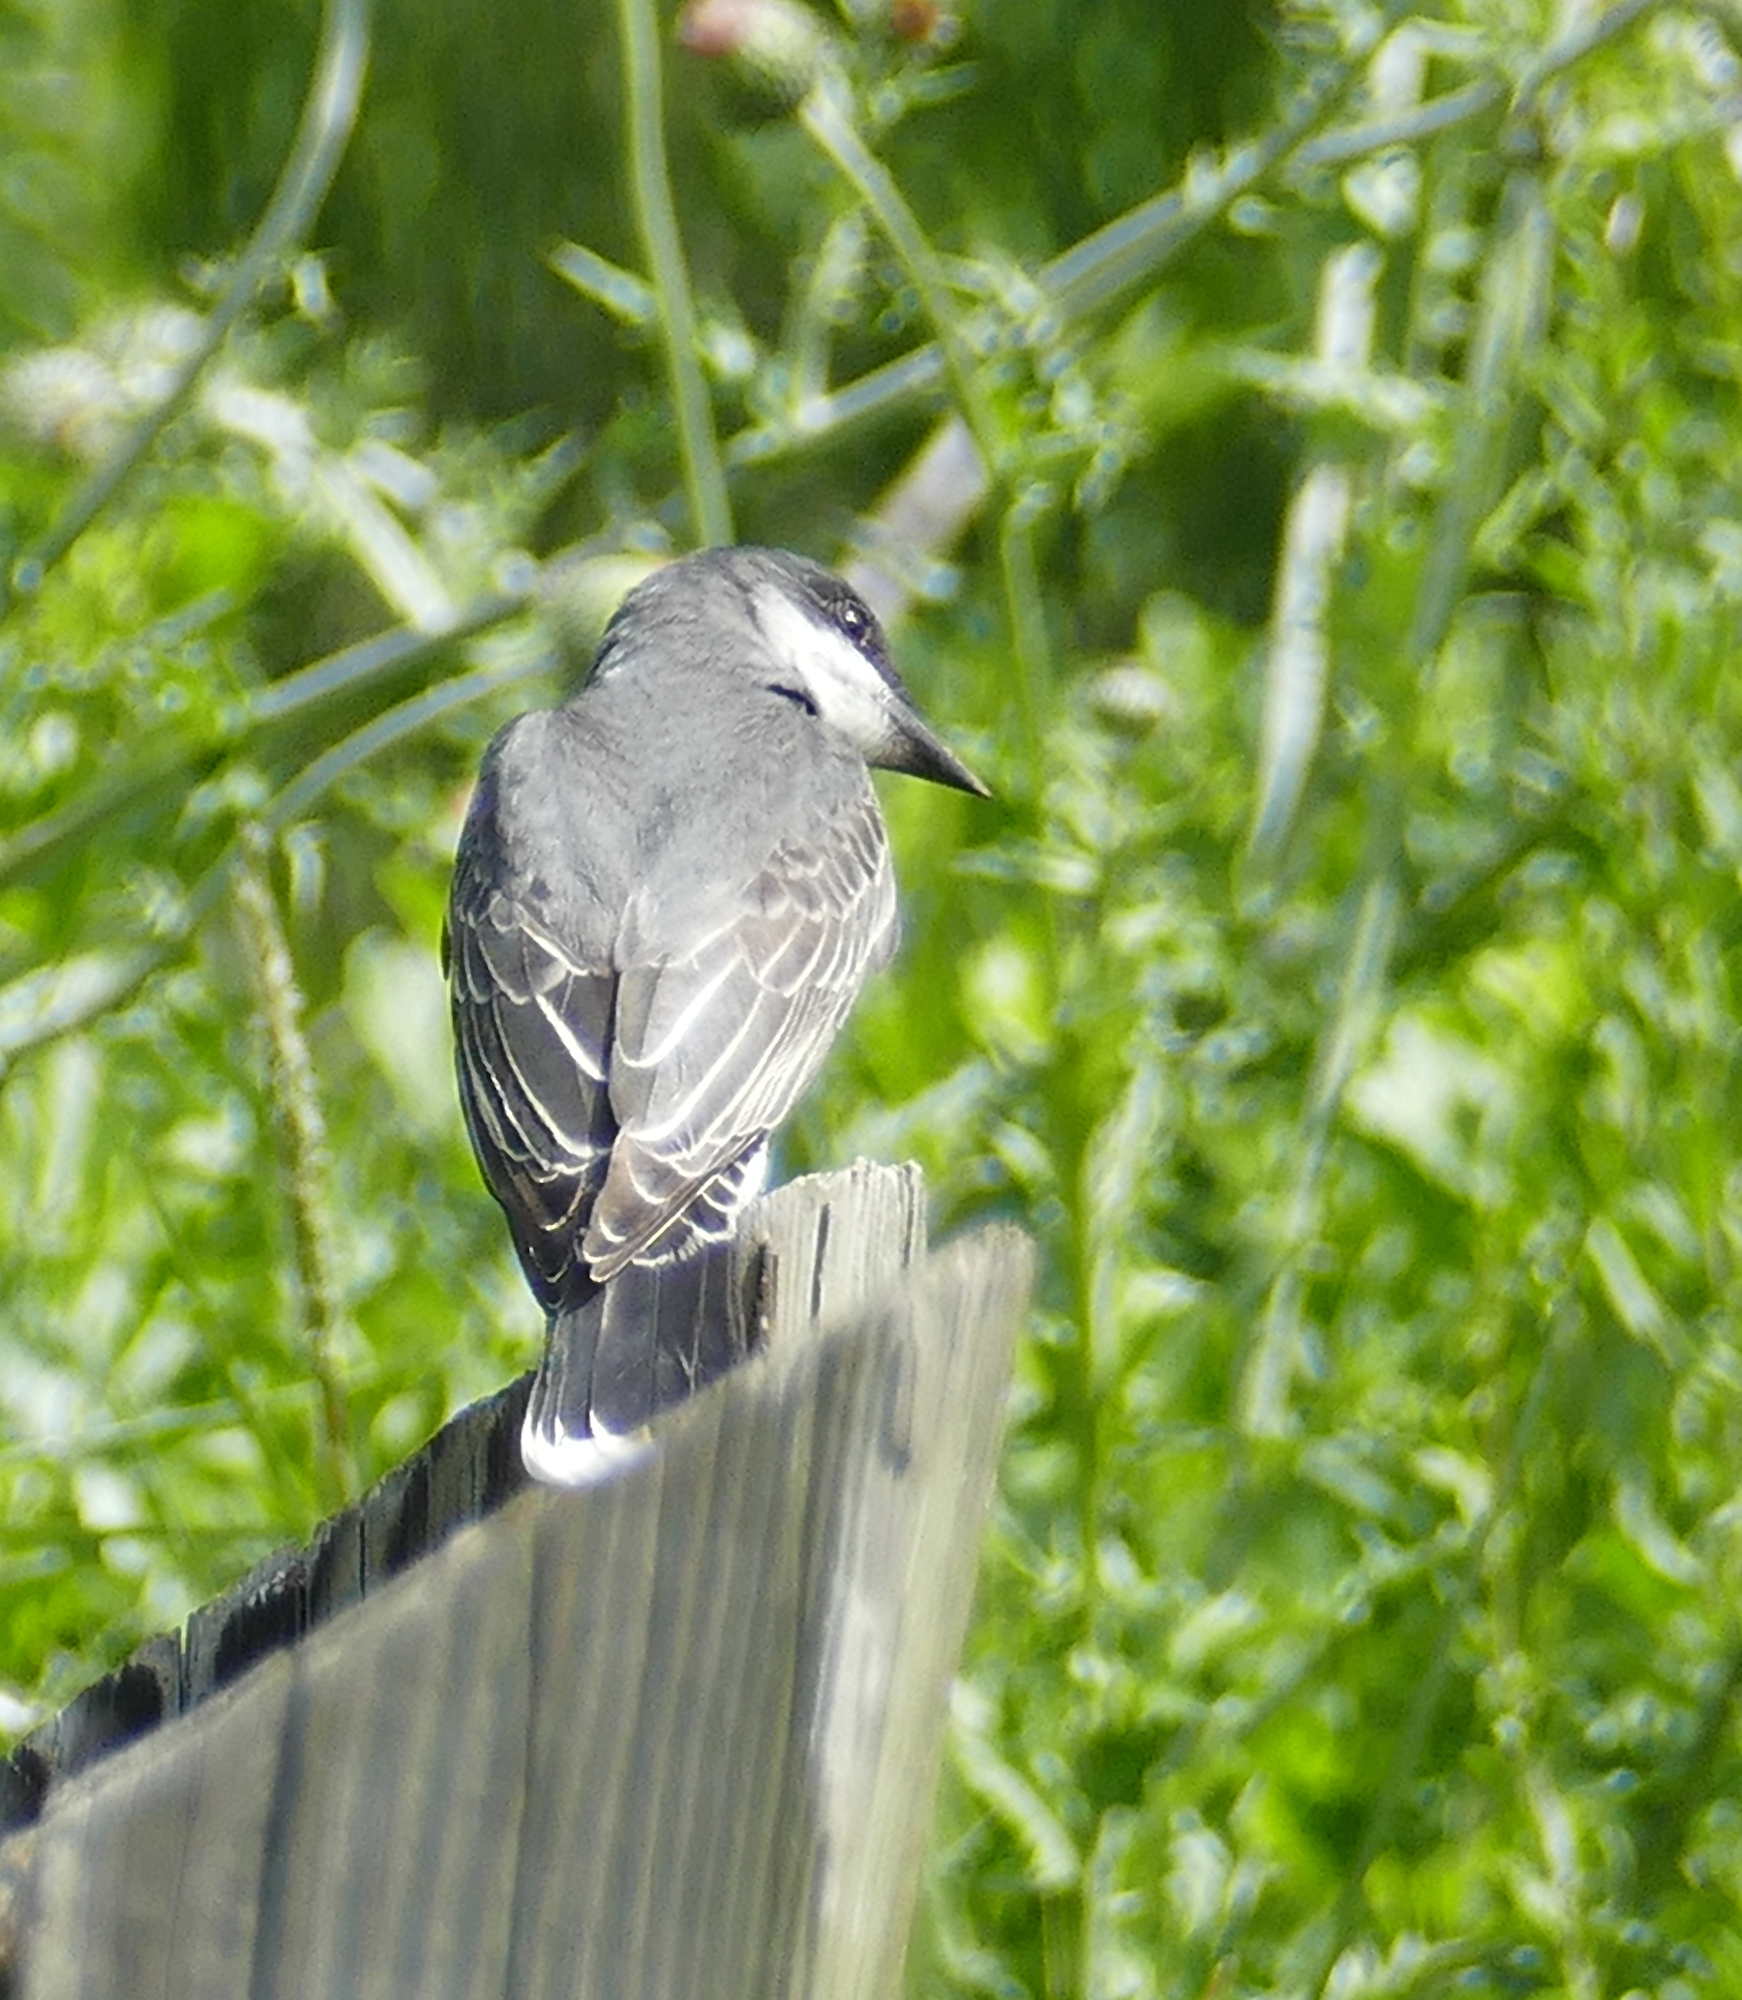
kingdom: Animalia
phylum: Chordata
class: Aves
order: Passeriformes
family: Tyrannidae
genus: Tyrannus
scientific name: Tyrannus tyrannus
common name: Eastern kingbird
